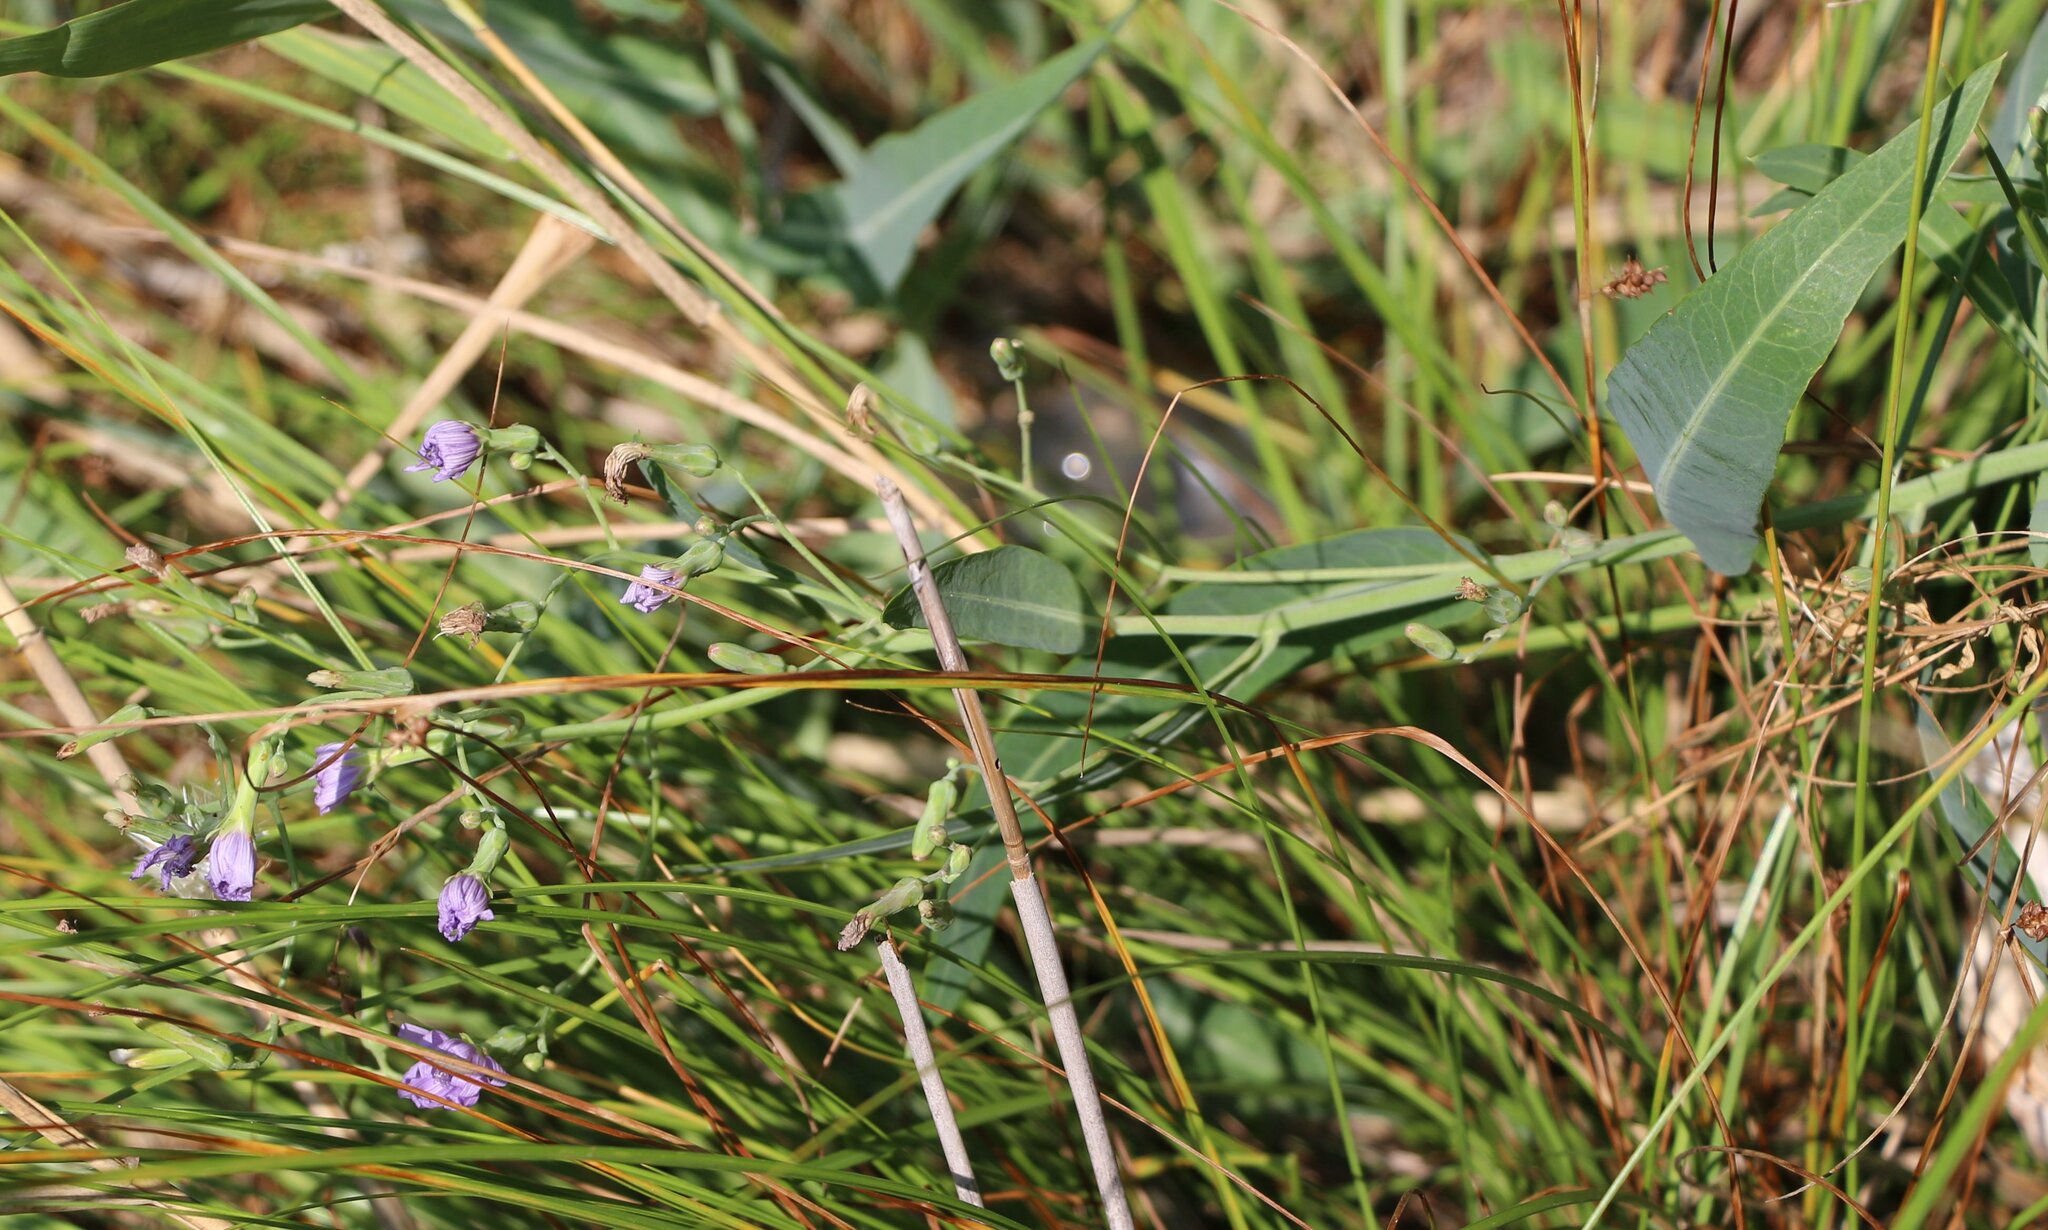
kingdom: Plantae
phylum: Tracheophyta
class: Magnoliopsida
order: Asterales
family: Asteraceae
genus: Lactuca
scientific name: Lactuca tatarica
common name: Blue lettuce
